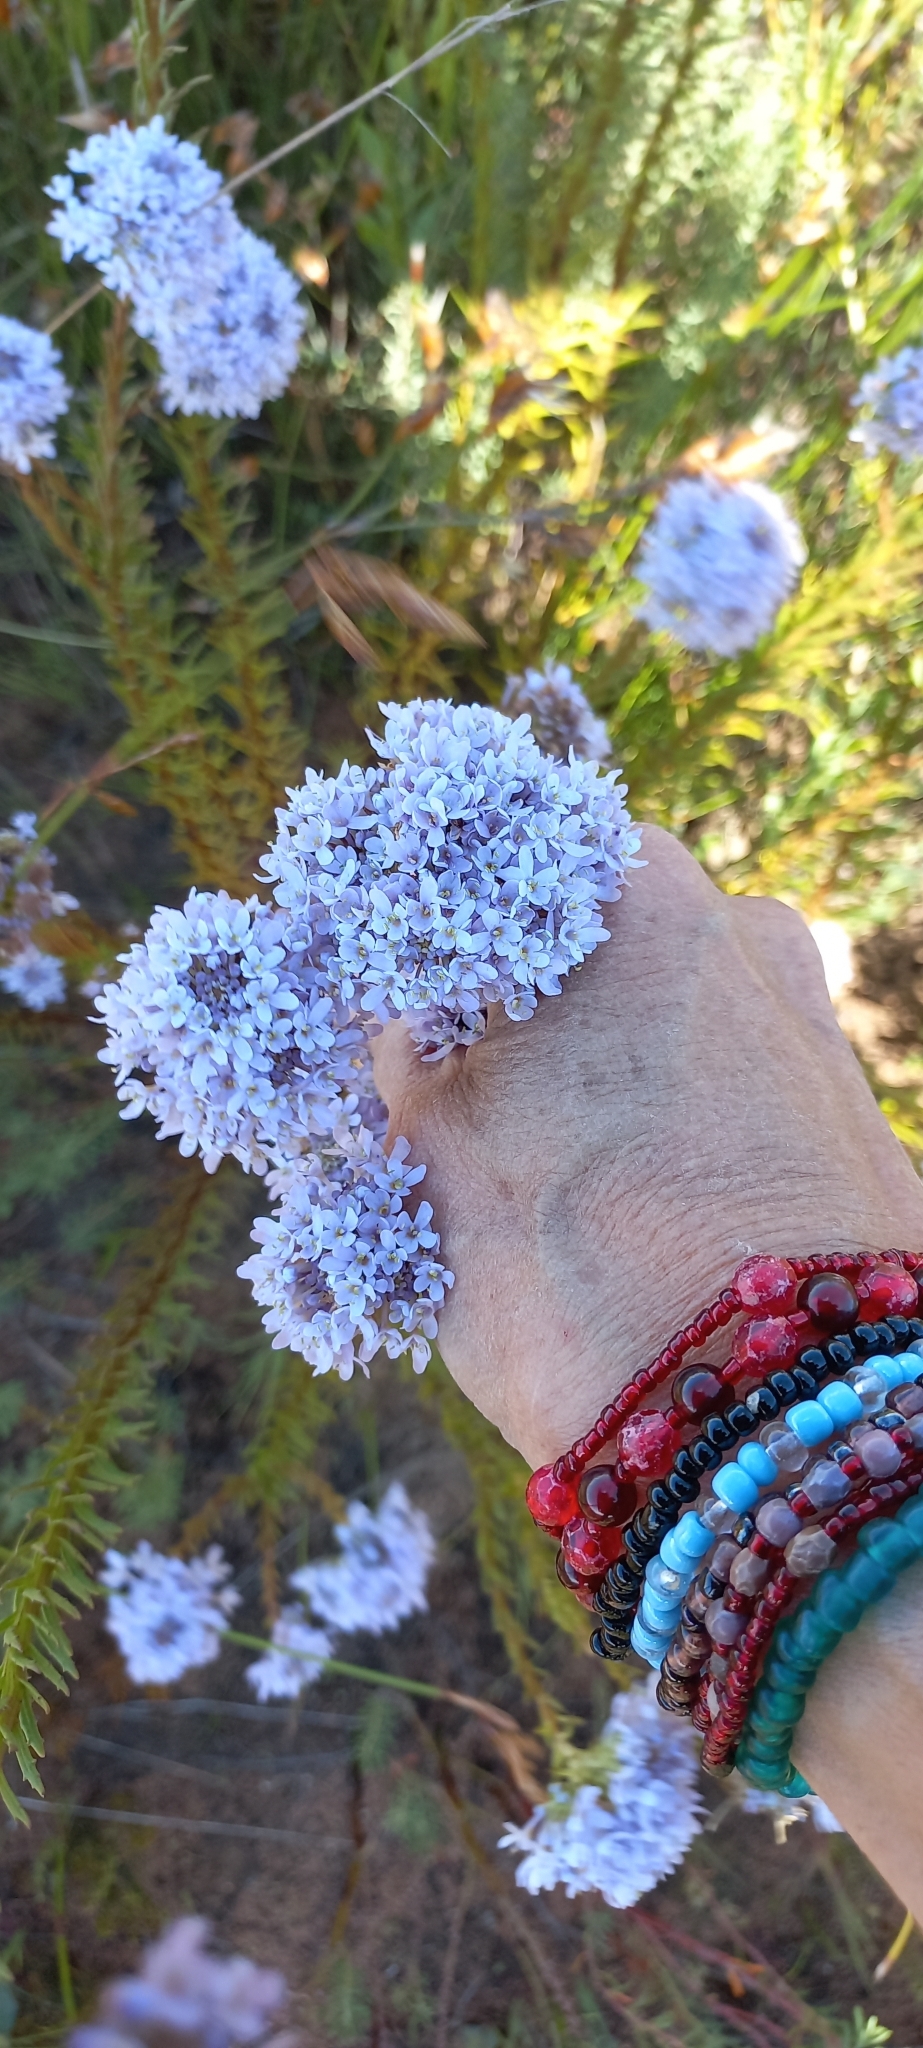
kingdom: Plantae
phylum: Tracheophyta
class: Magnoliopsida
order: Lamiales
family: Scrophulariaceae
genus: Pseudoselago
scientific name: Pseudoselago spuria
